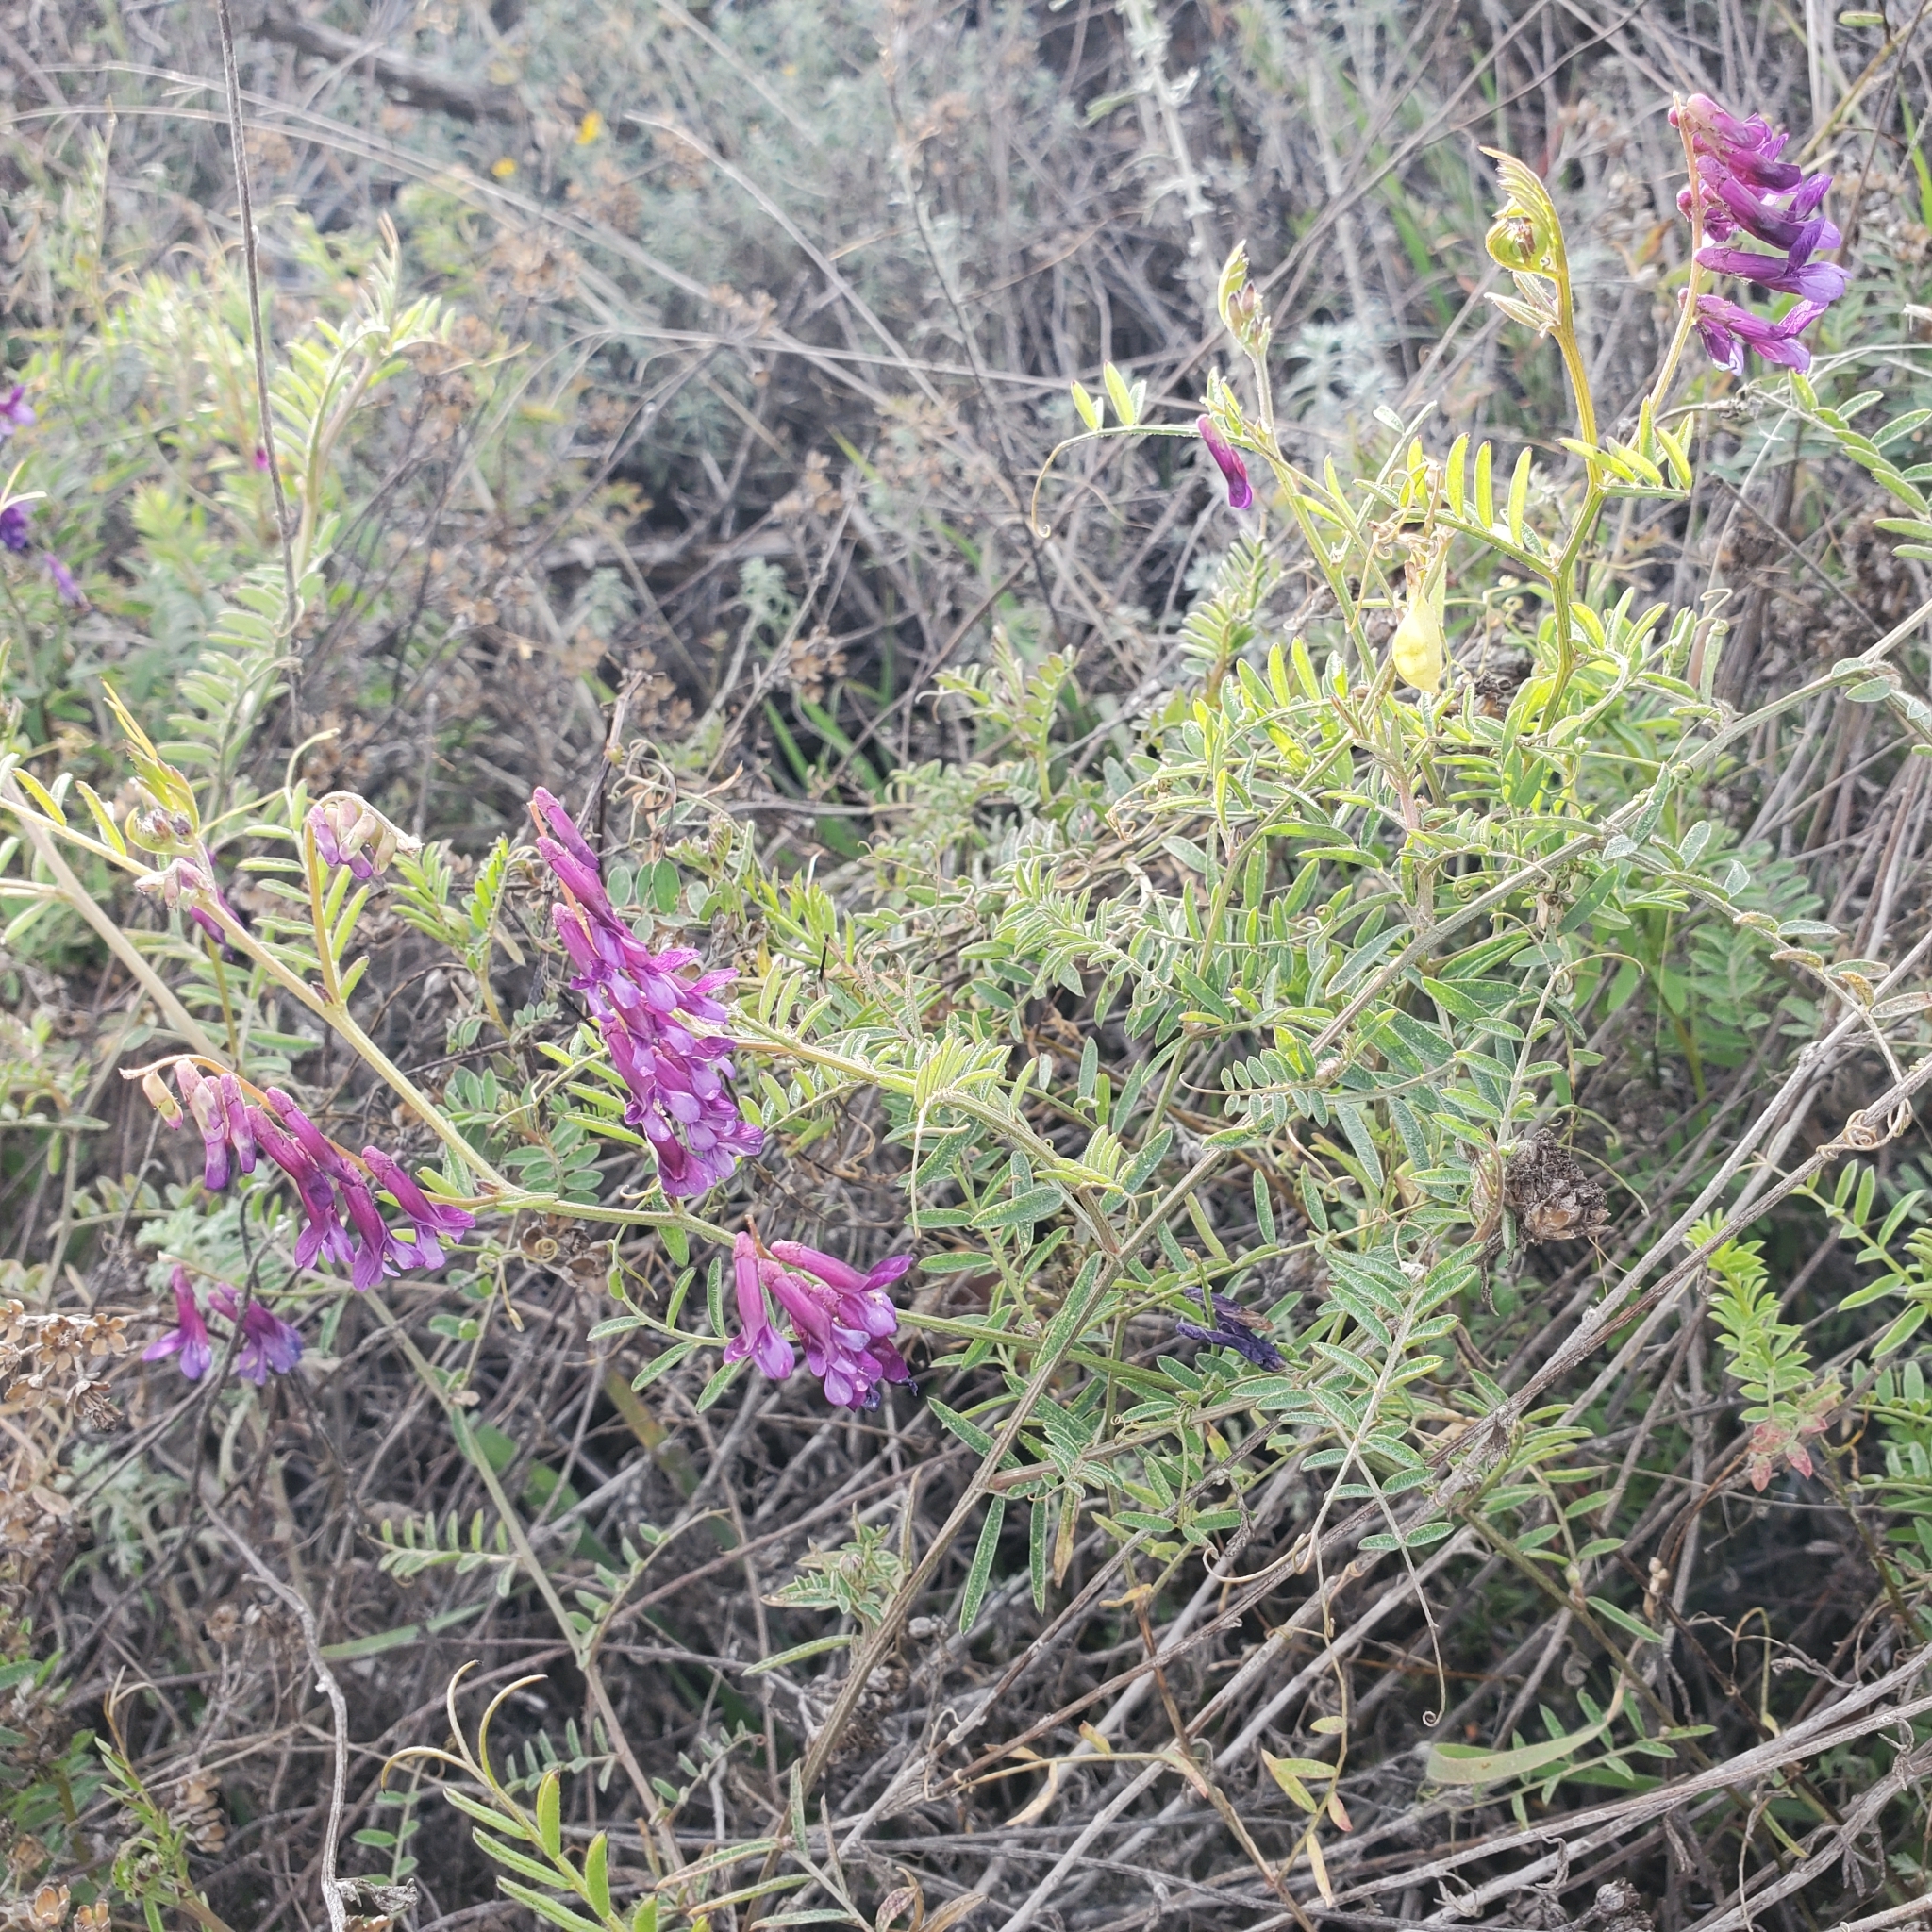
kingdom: Plantae
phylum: Tracheophyta
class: Magnoliopsida
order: Fabales
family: Fabaceae
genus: Vicia
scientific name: Vicia villosa
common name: Fodder vetch
